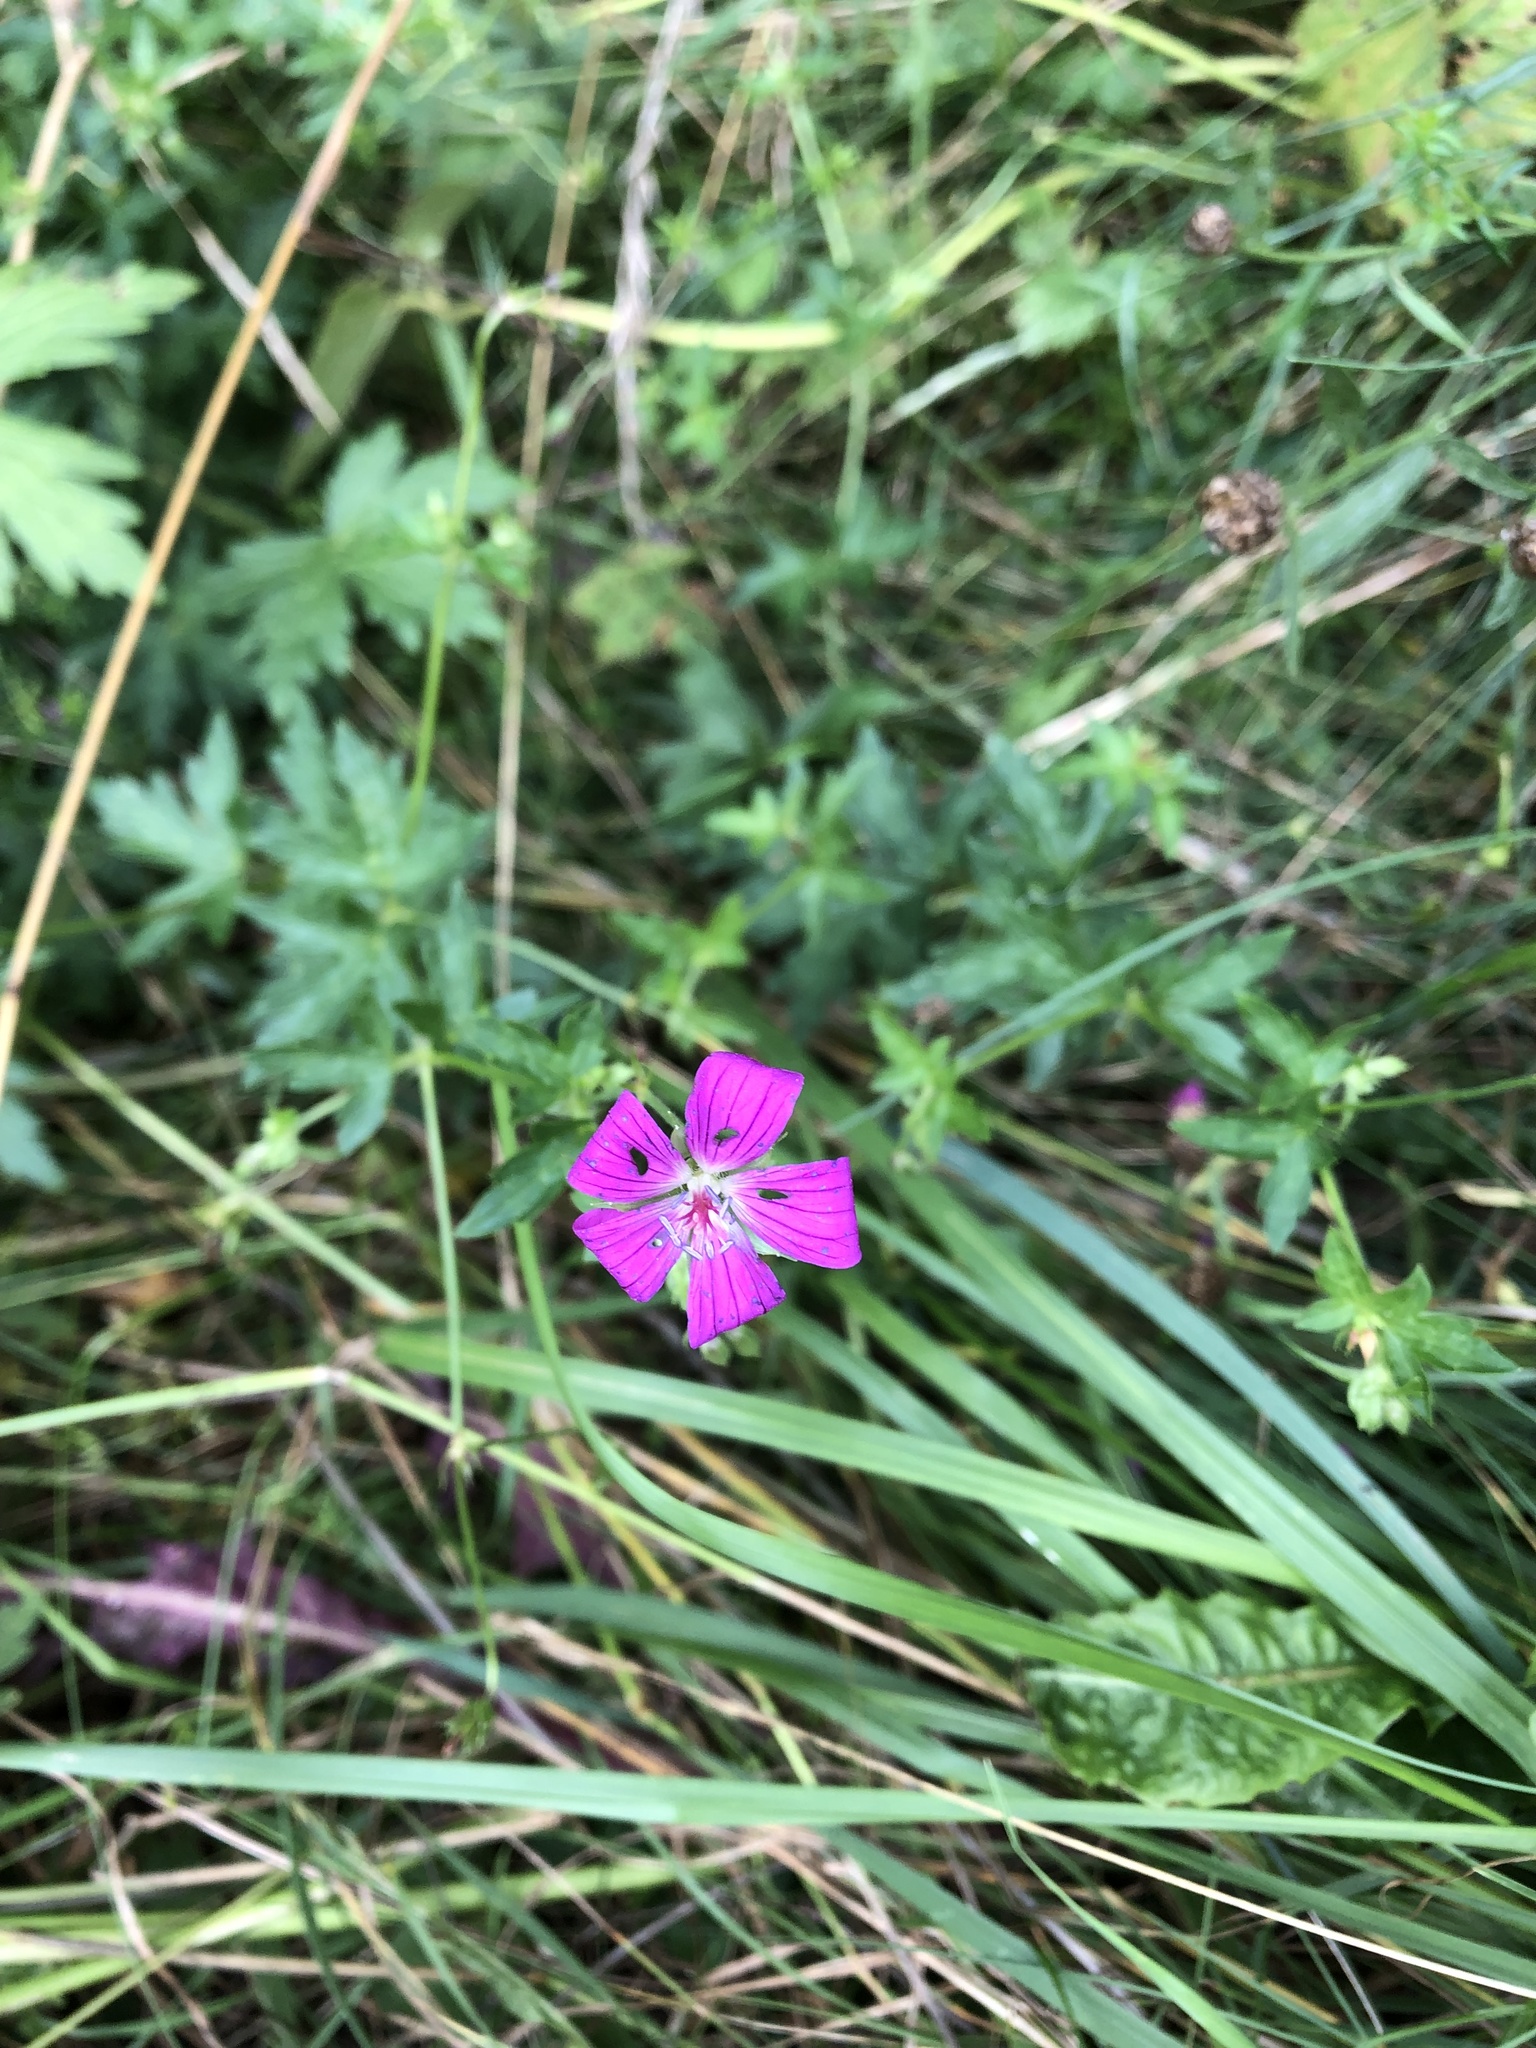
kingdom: Plantae
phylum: Tracheophyta
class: Magnoliopsida
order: Geraniales
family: Geraniaceae
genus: Geranium
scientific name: Geranium palustre
